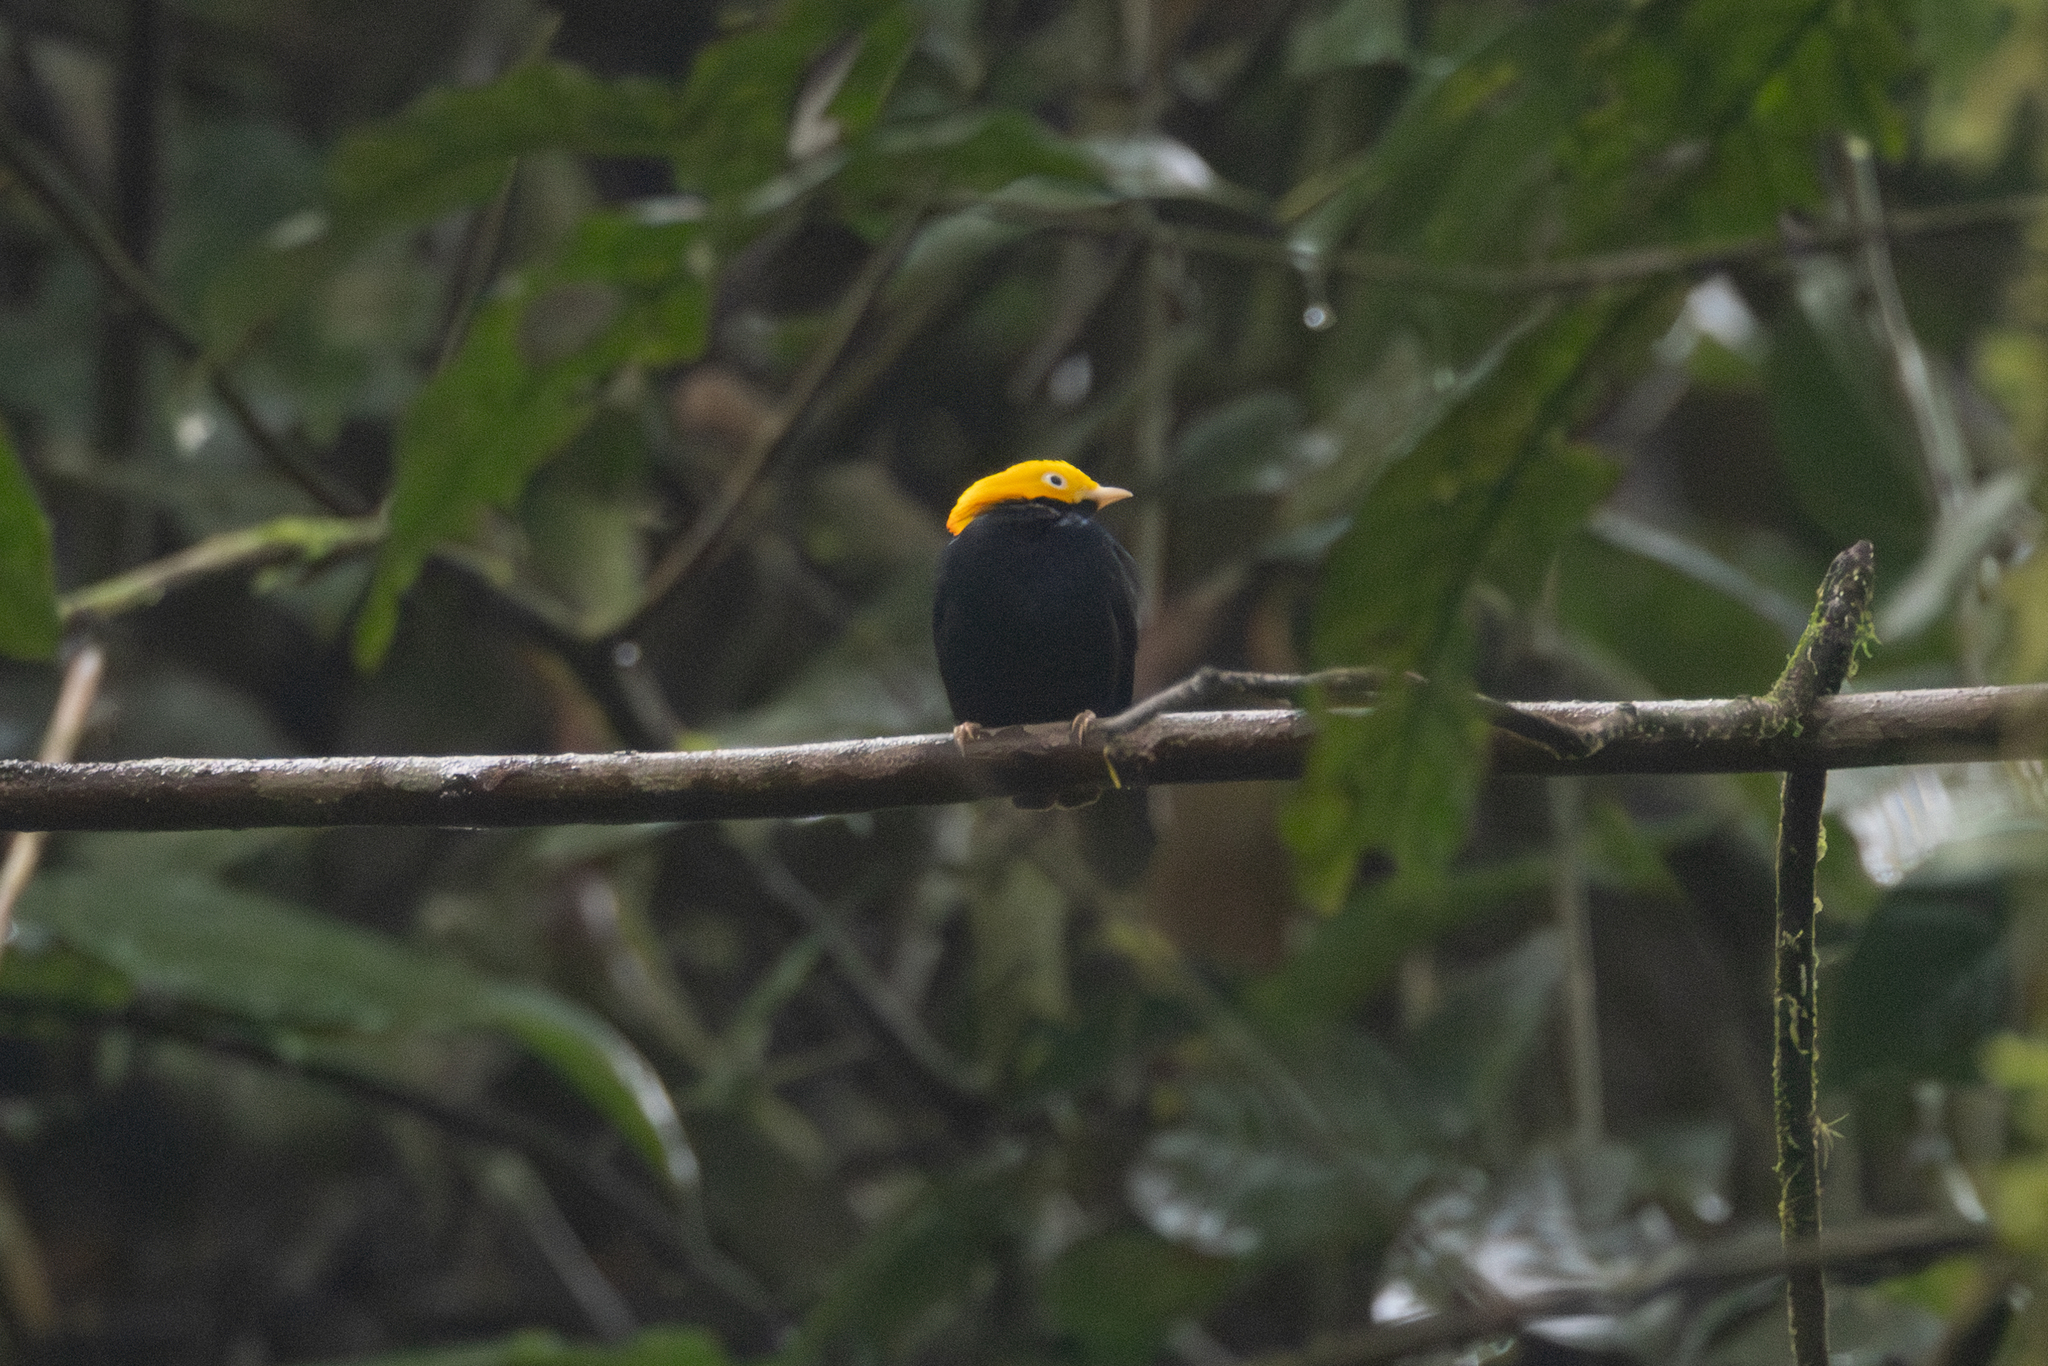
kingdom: Animalia
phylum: Chordata
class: Aves
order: Passeriformes
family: Pipridae
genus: Pipra
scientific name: Pipra erythrocephala
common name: Golden-headed manakin
